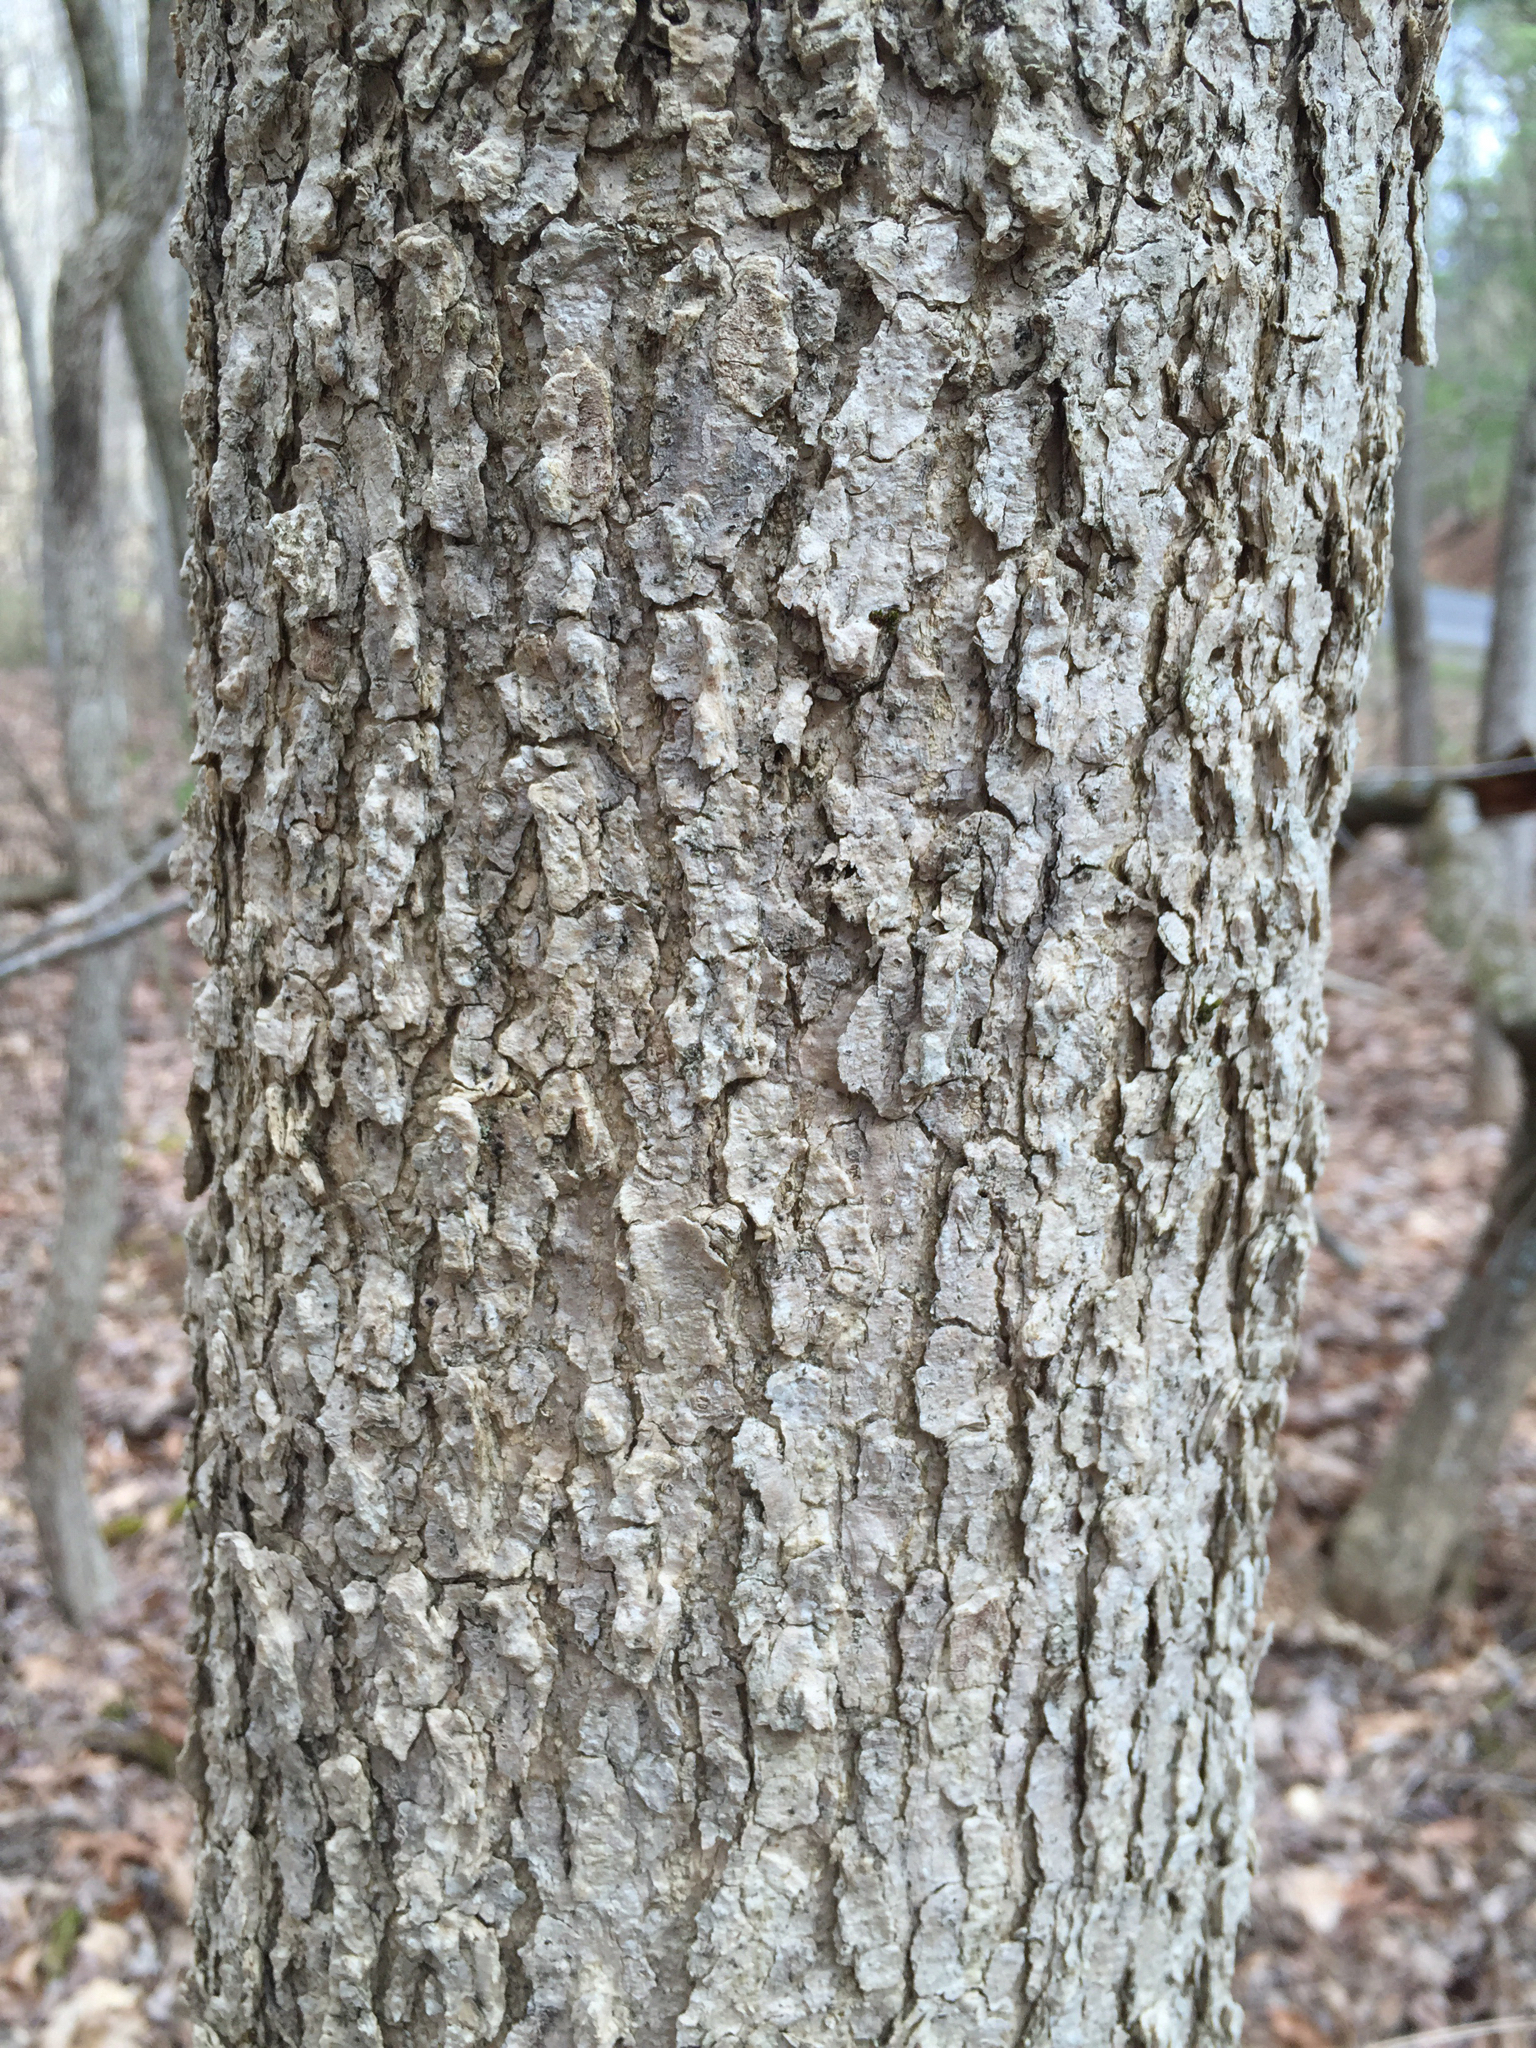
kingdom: Plantae
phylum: Tracheophyta
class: Magnoliopsida
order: Lamiales
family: Oleaceae
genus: Fraxinus
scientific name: Fraxinus nigra
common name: Black ash
